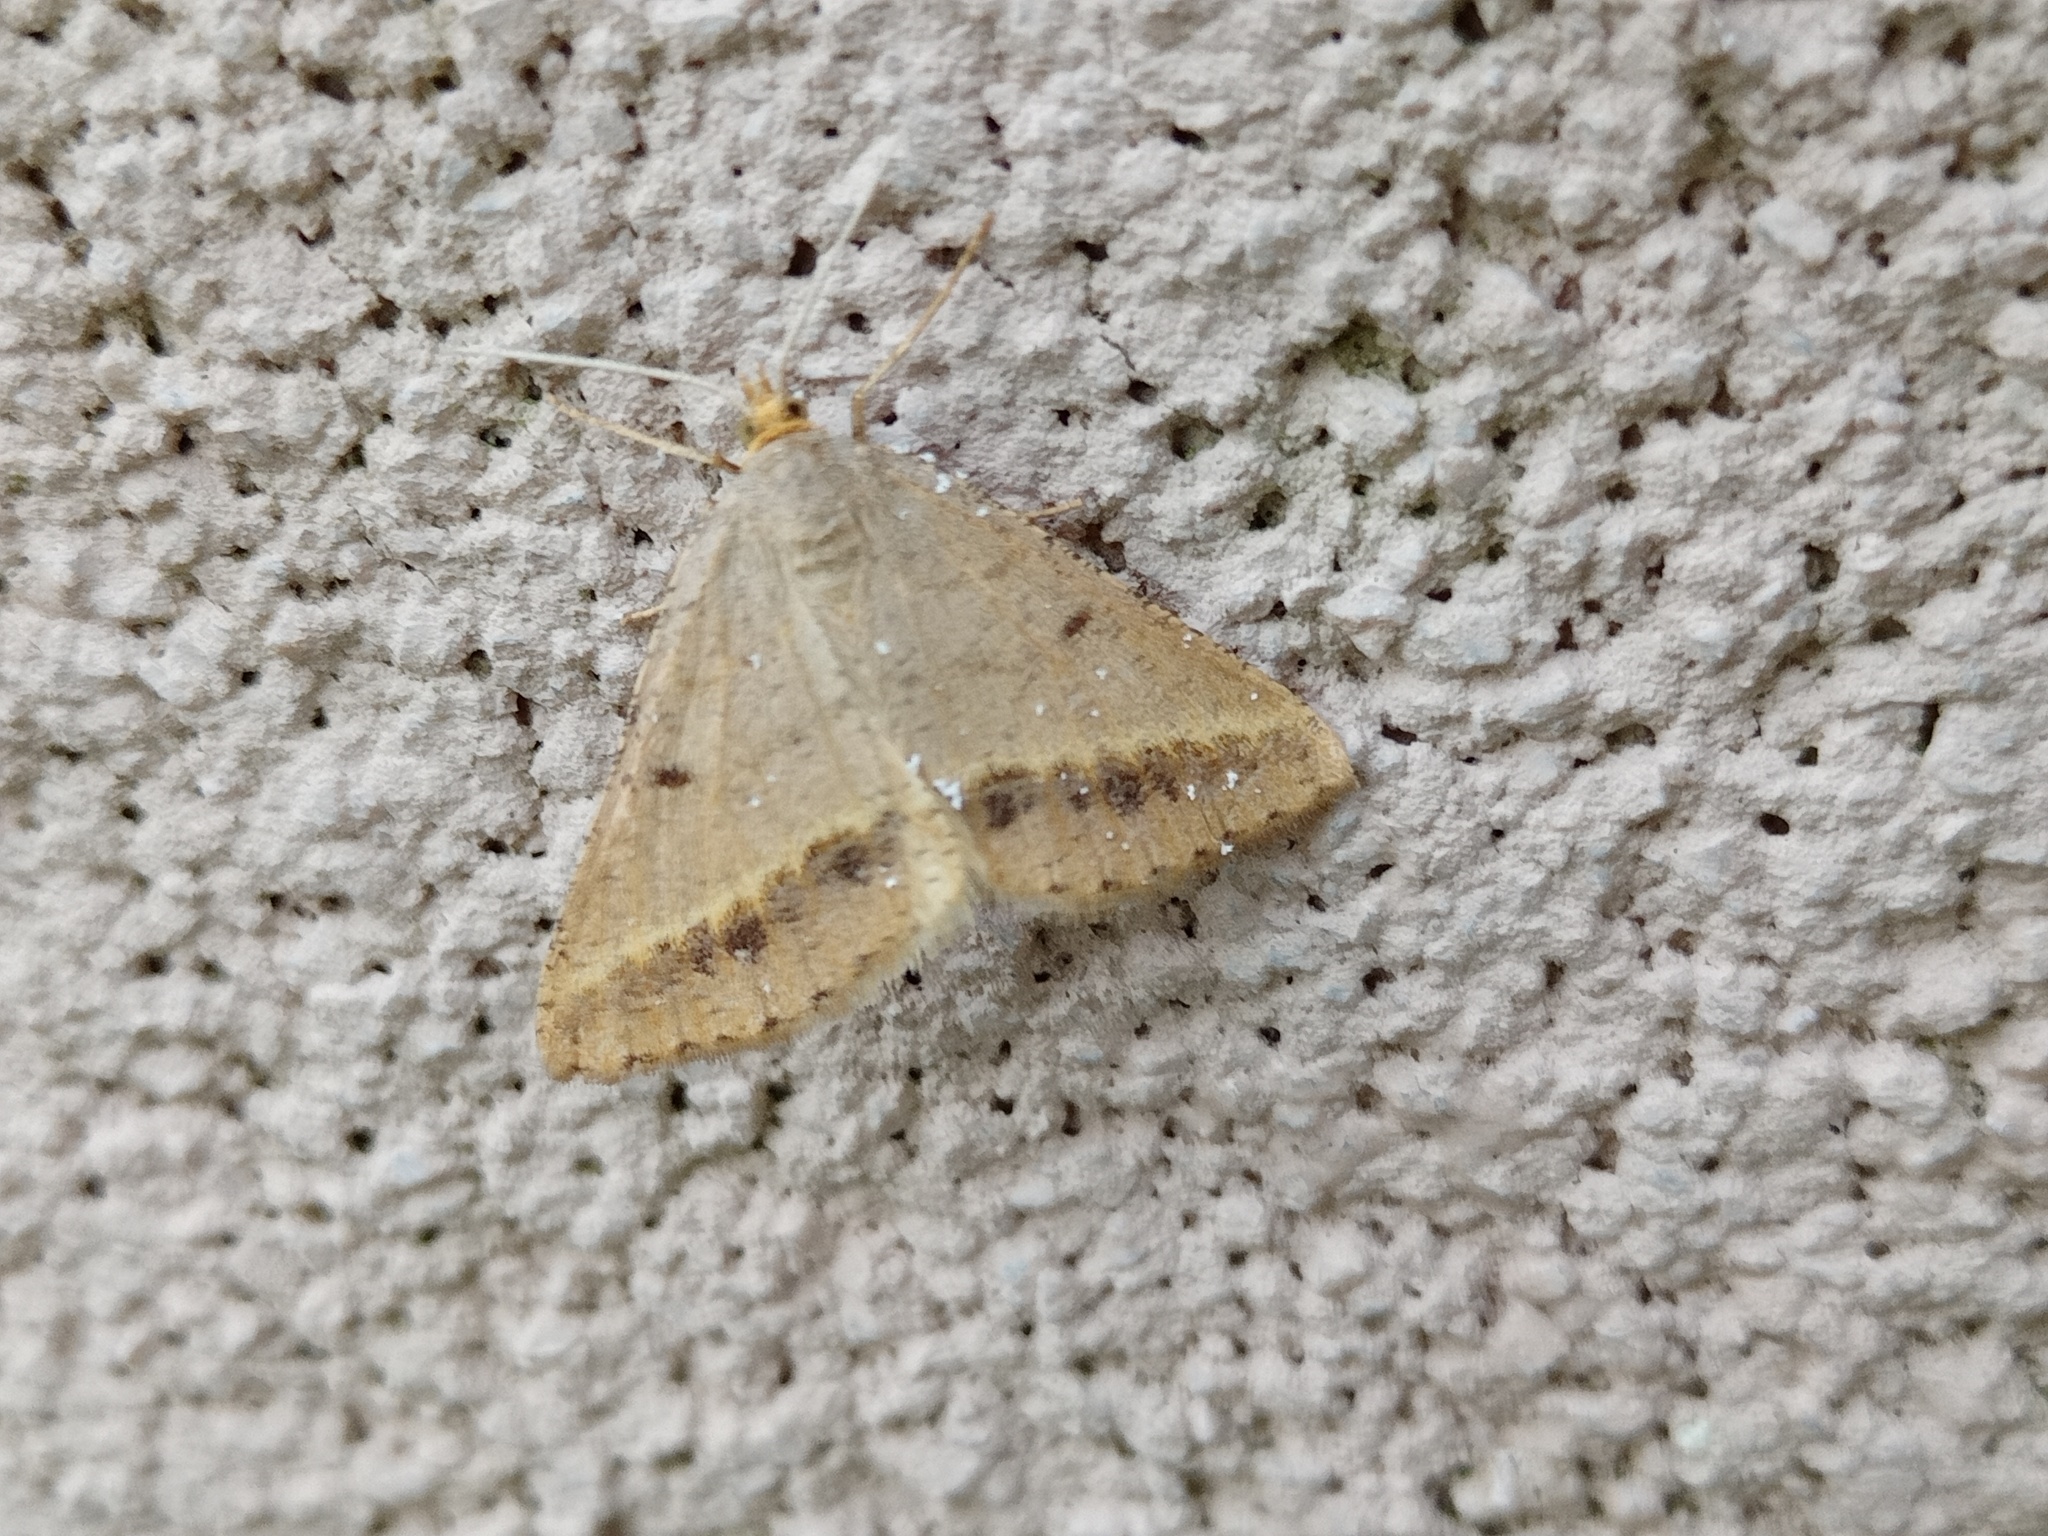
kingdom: Animalia
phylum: Arthropoda
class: Insecta
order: Lepidoptera
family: Geometridae
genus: Tephrina
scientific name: Tephrina arenacearia
